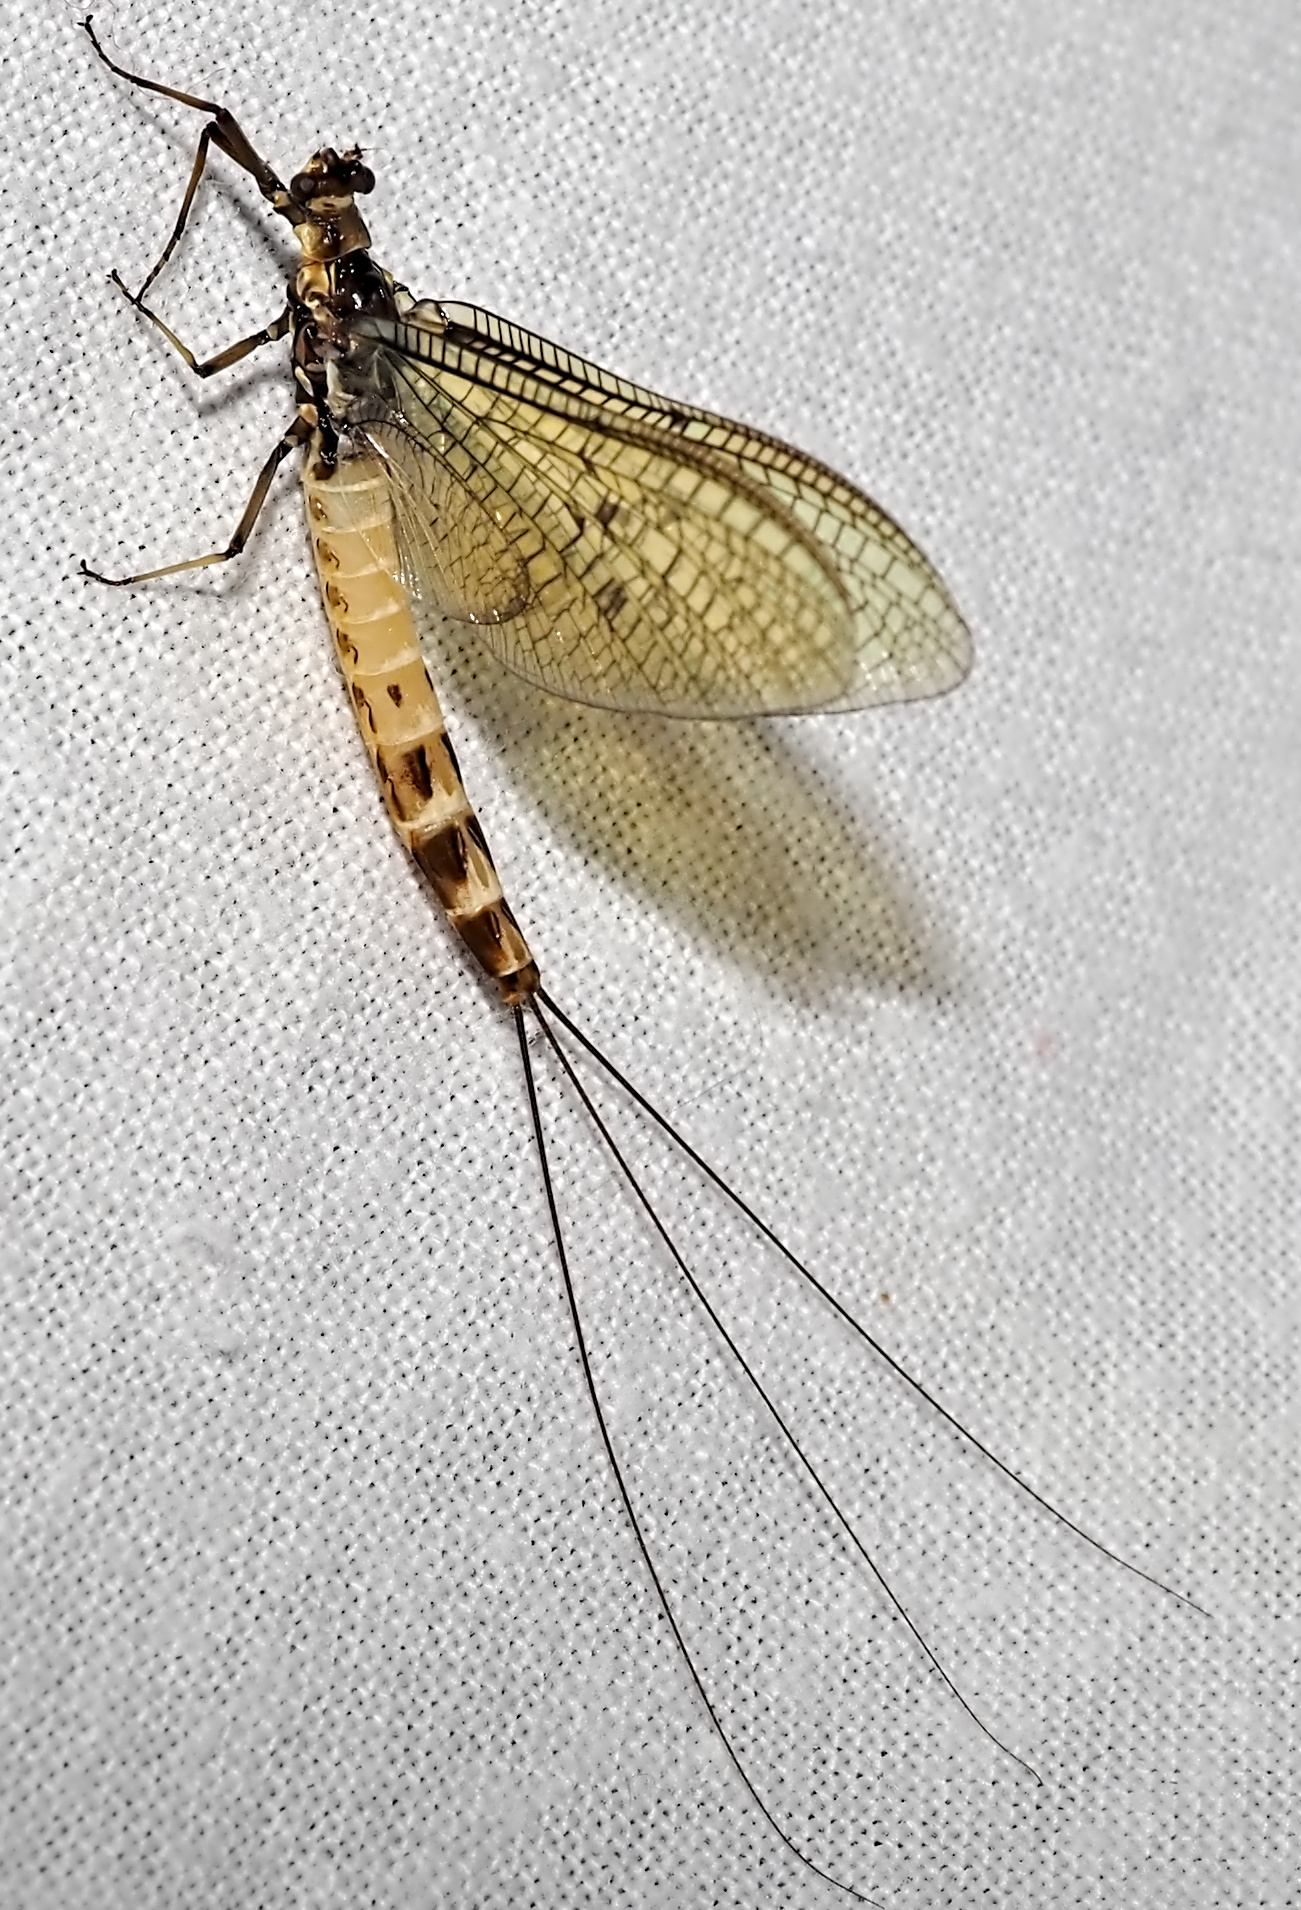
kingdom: Animalia
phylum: Arthropoda
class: Insecta
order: Ephemeroptera
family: Ephemeridae
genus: Ephemera
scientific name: Ephemera danica
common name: Green dun
